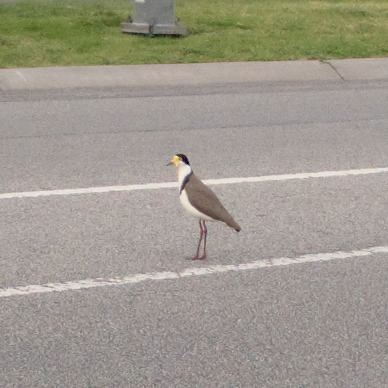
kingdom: Animalia
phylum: Chordata
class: Aves
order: Charadriiformes
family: Charadriidae
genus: Vanellus
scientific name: Vanellus miles
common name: Masked lapwing
